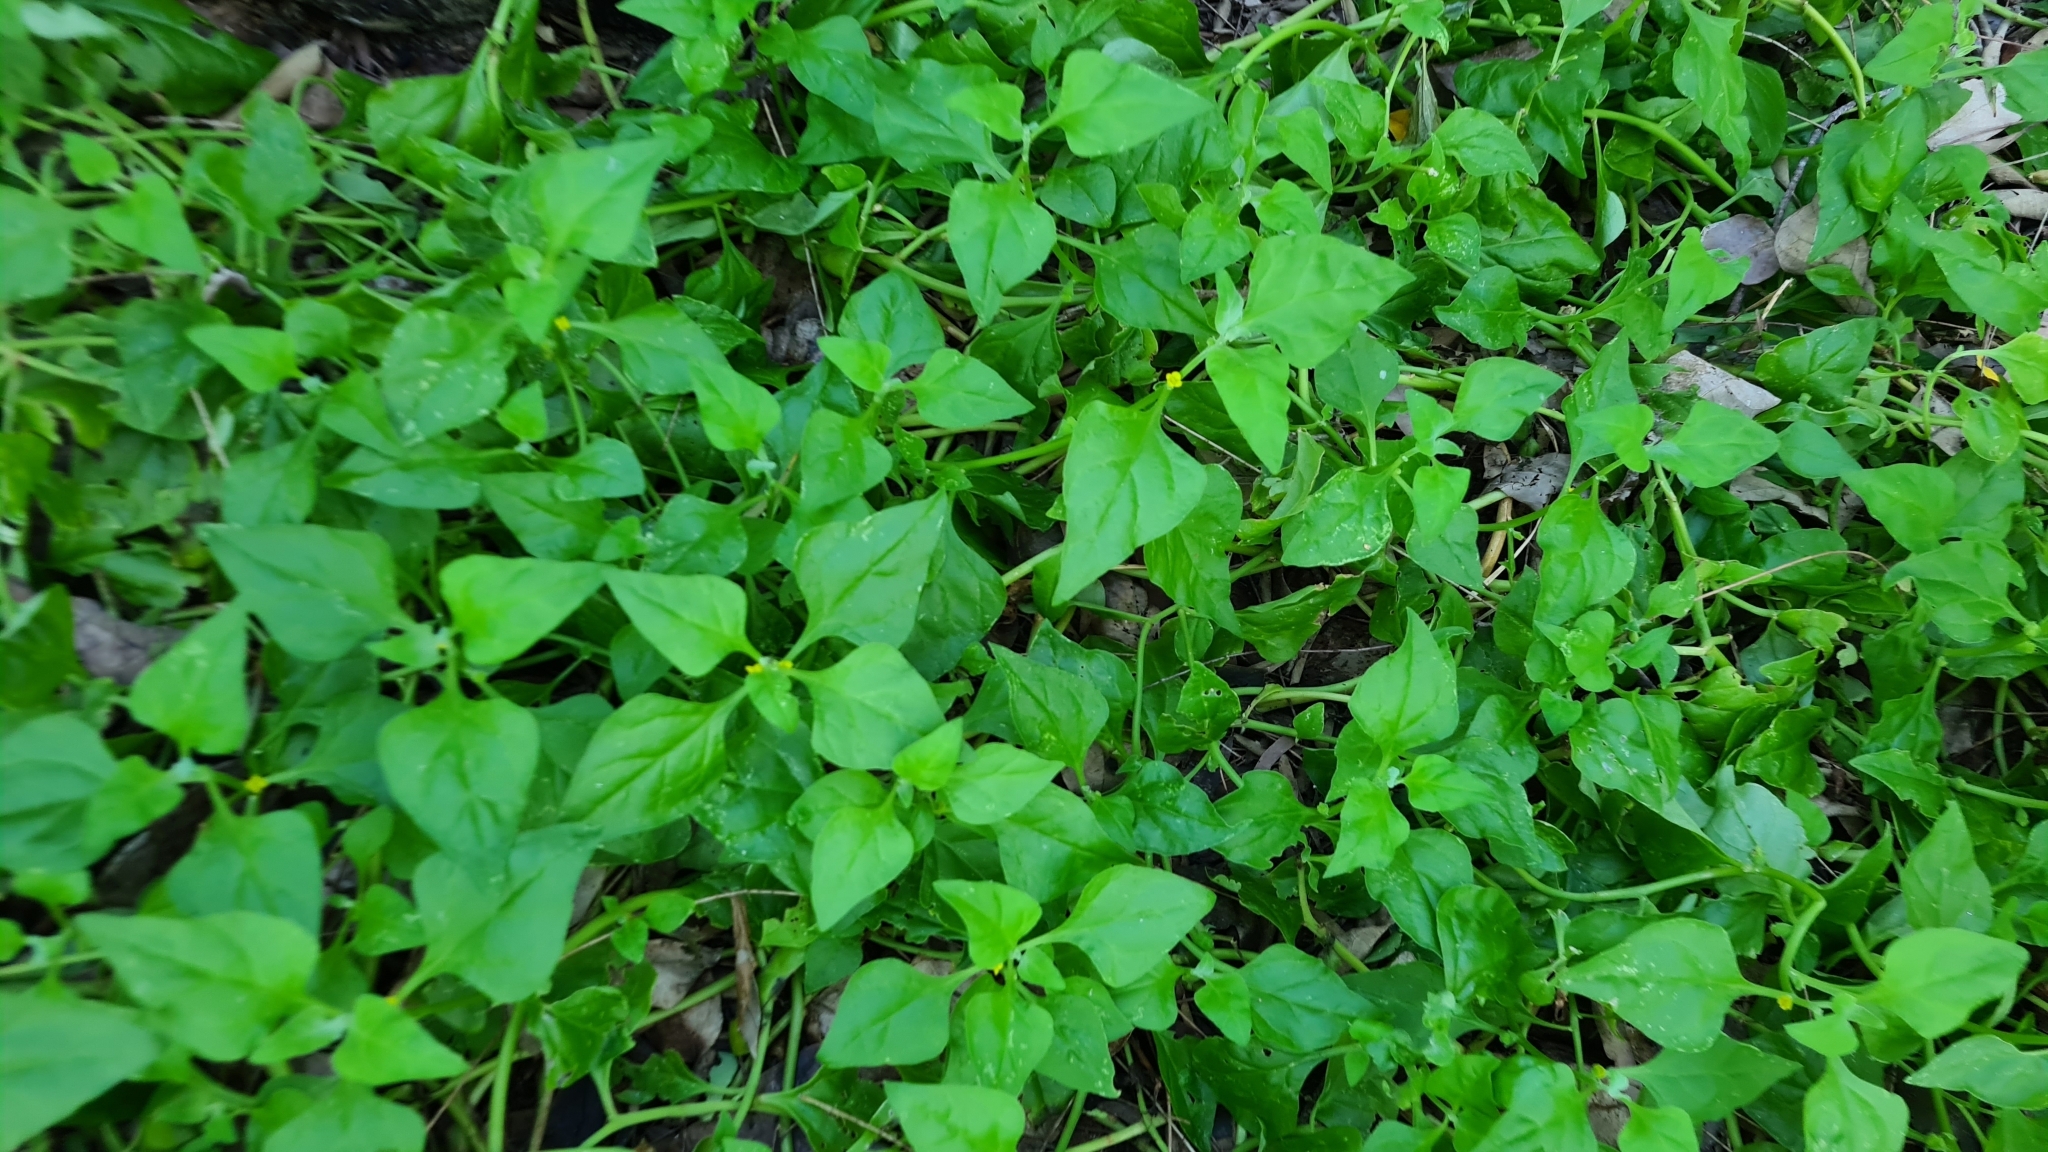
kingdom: Plantae
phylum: Tracheophyta
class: Magnoliopsida
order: Caryophyllales
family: Aizoaceae
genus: Tetragonia
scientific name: Tetragonia tetragonoides
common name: New zealand-spinach
